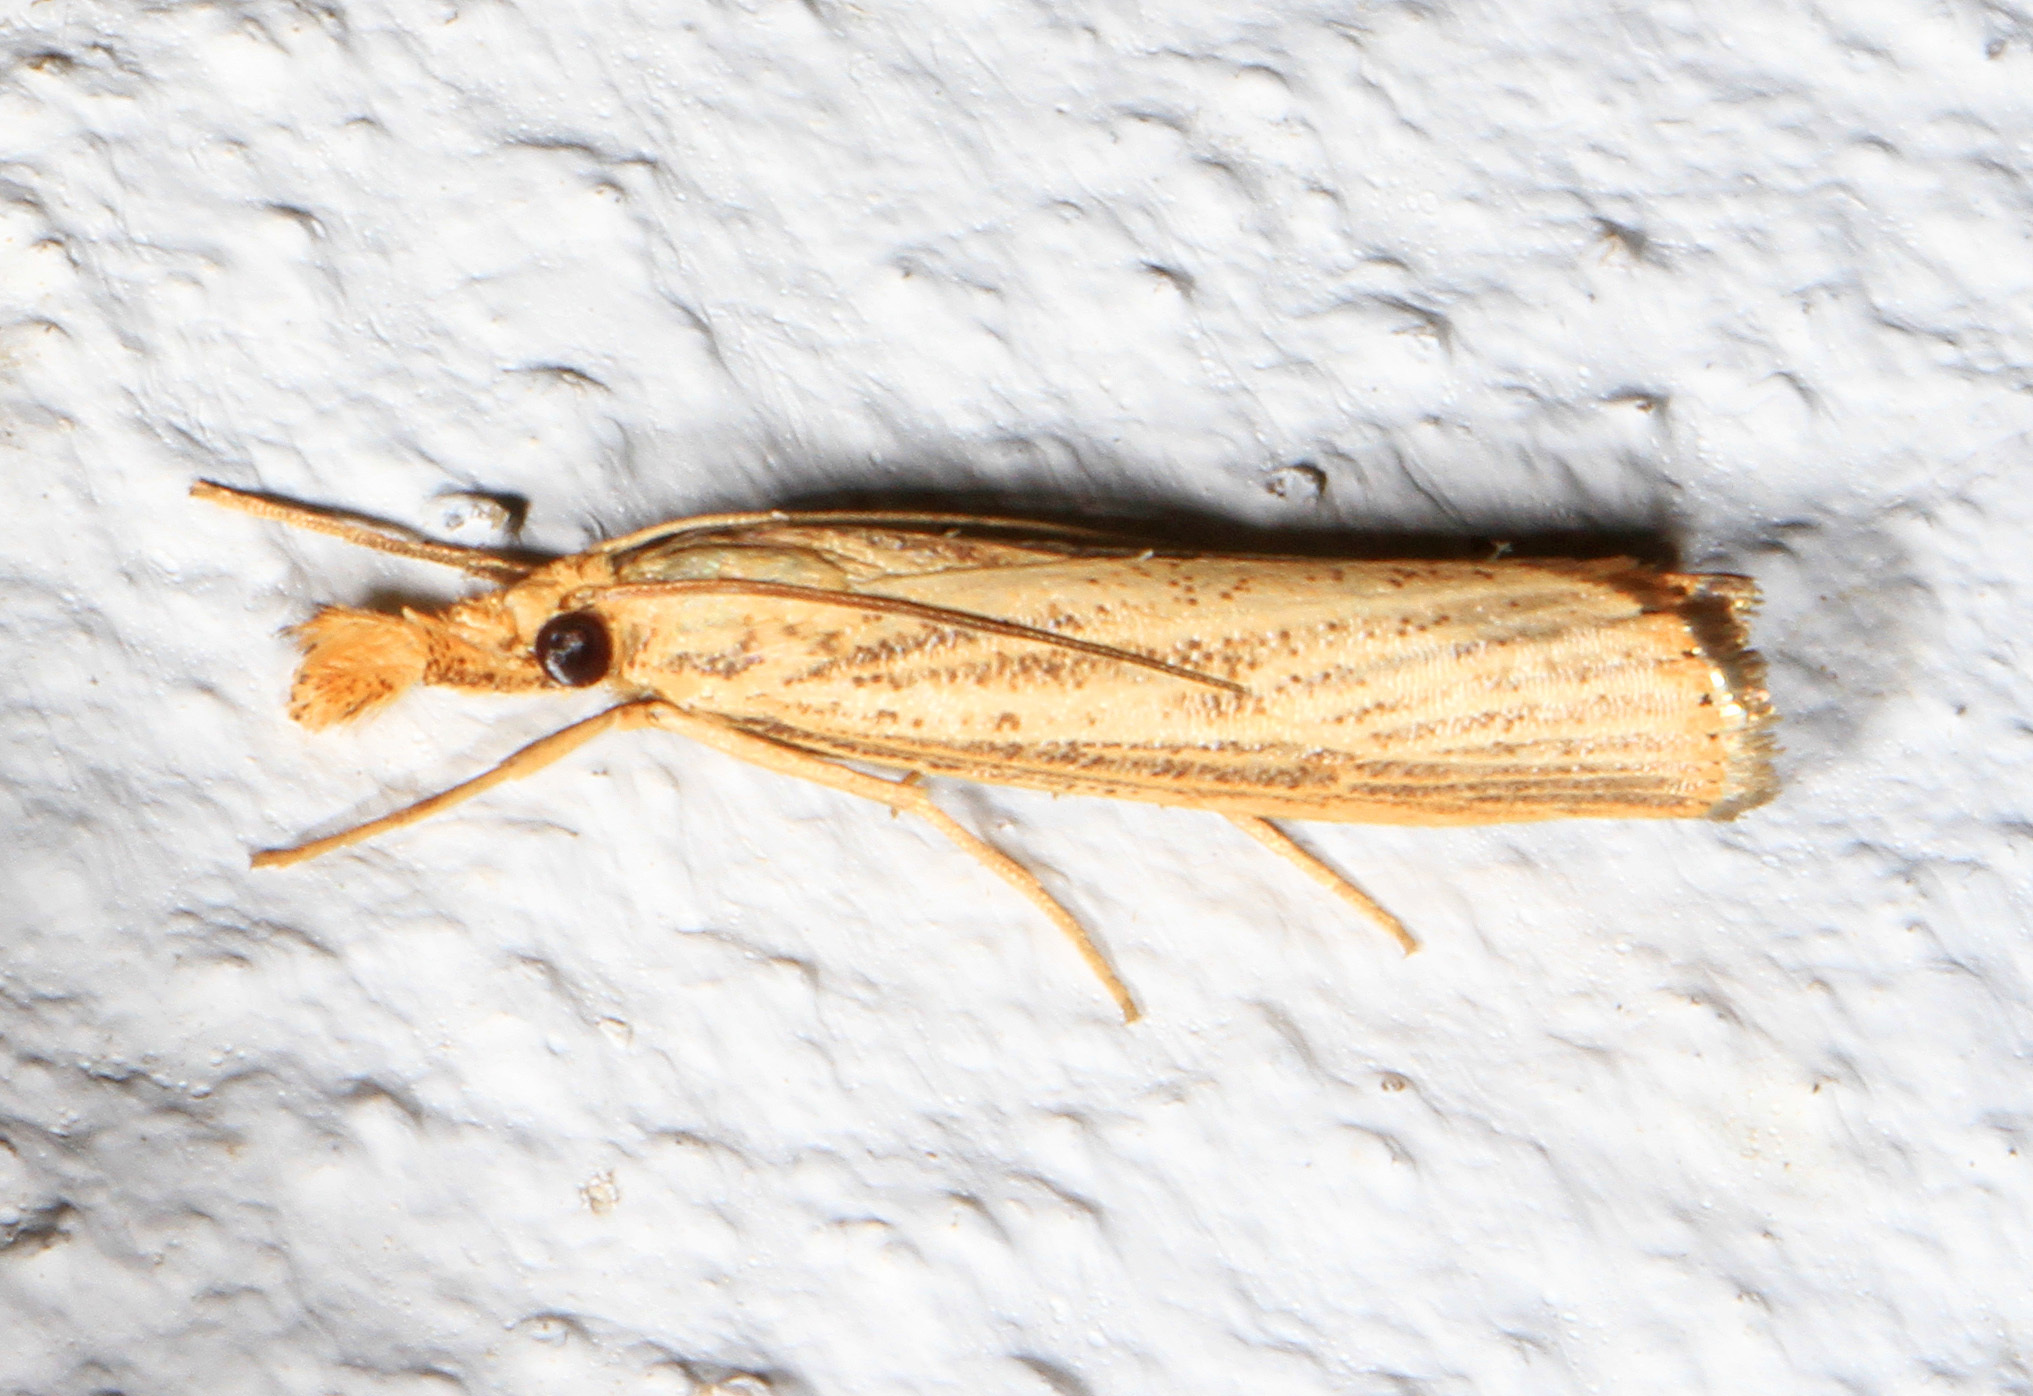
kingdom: Animalia
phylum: Arthropoda
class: Insecta
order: Lepidoptera
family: Crambidae
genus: Agriphila
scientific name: Agriphila vulgivagellus
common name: Vagabond crambus moth
